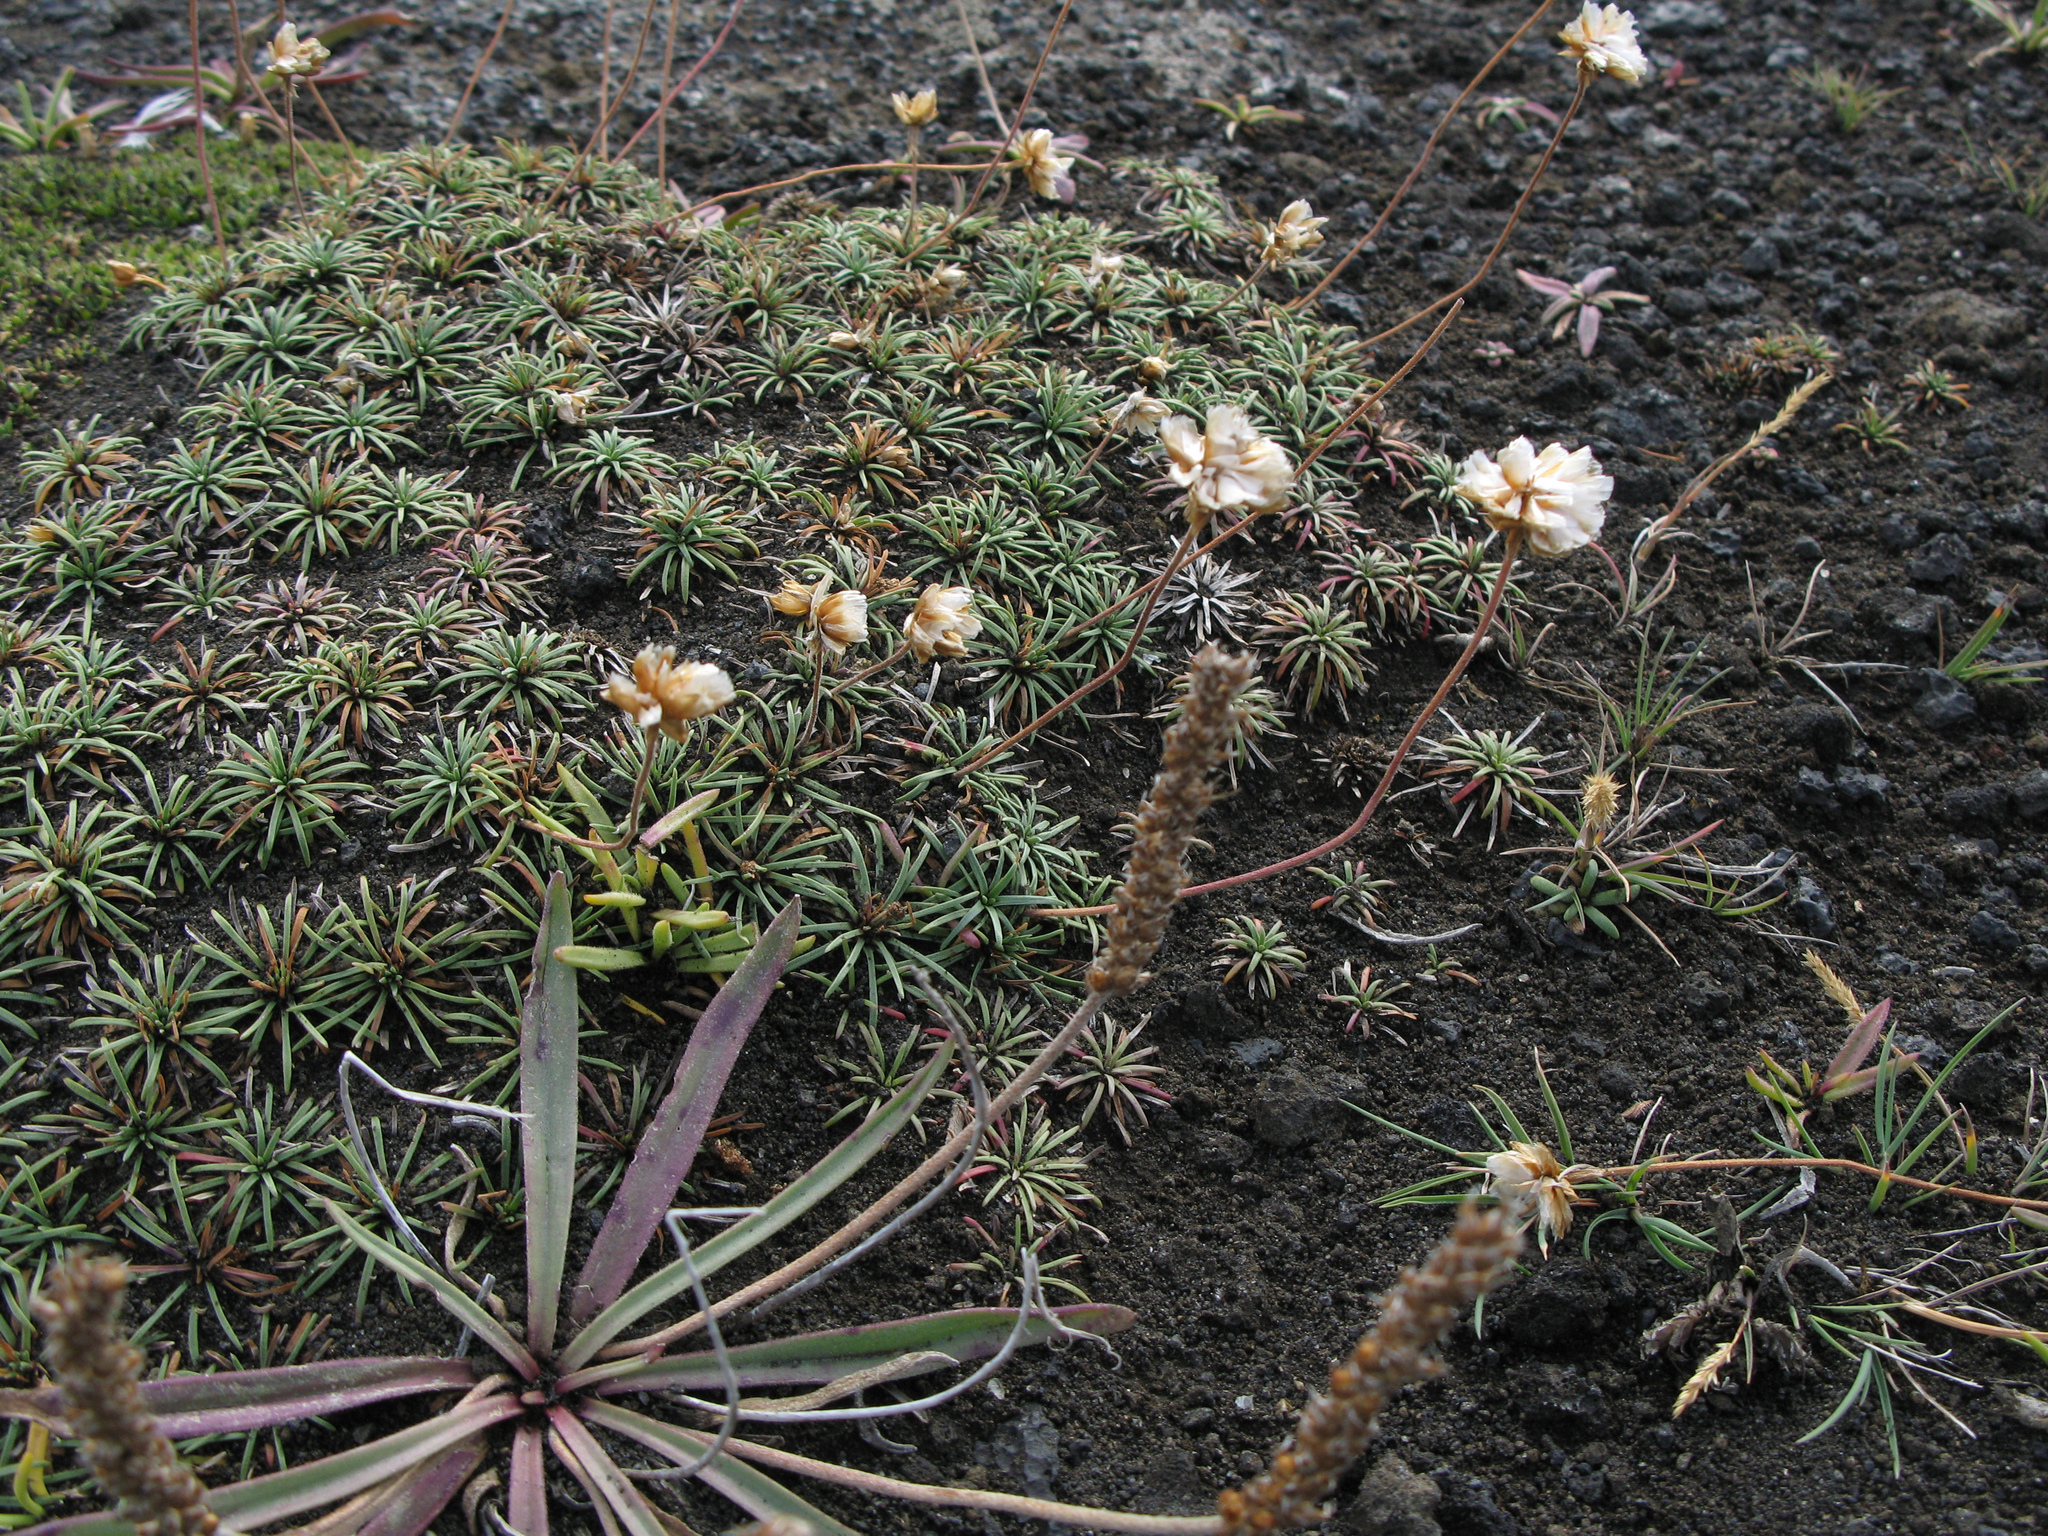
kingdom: Plantae
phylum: Tracheophyta
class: Magnoliopsida
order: Caryophyllales
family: Plumbaginaceae
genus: Armeria
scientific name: Armeria maritima
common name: Thrift
